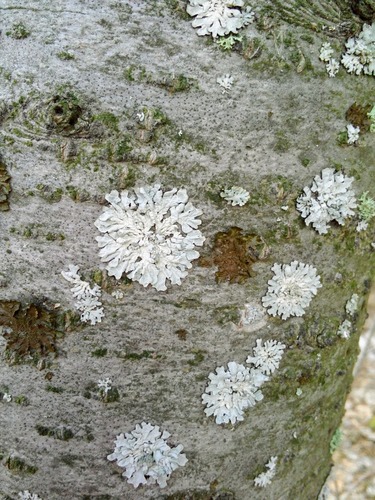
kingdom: Fungi
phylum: Ascomycota
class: Lecanoromycetes
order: Lecanorales
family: Parmeliaceae
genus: Parmelia
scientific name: Parmelia
